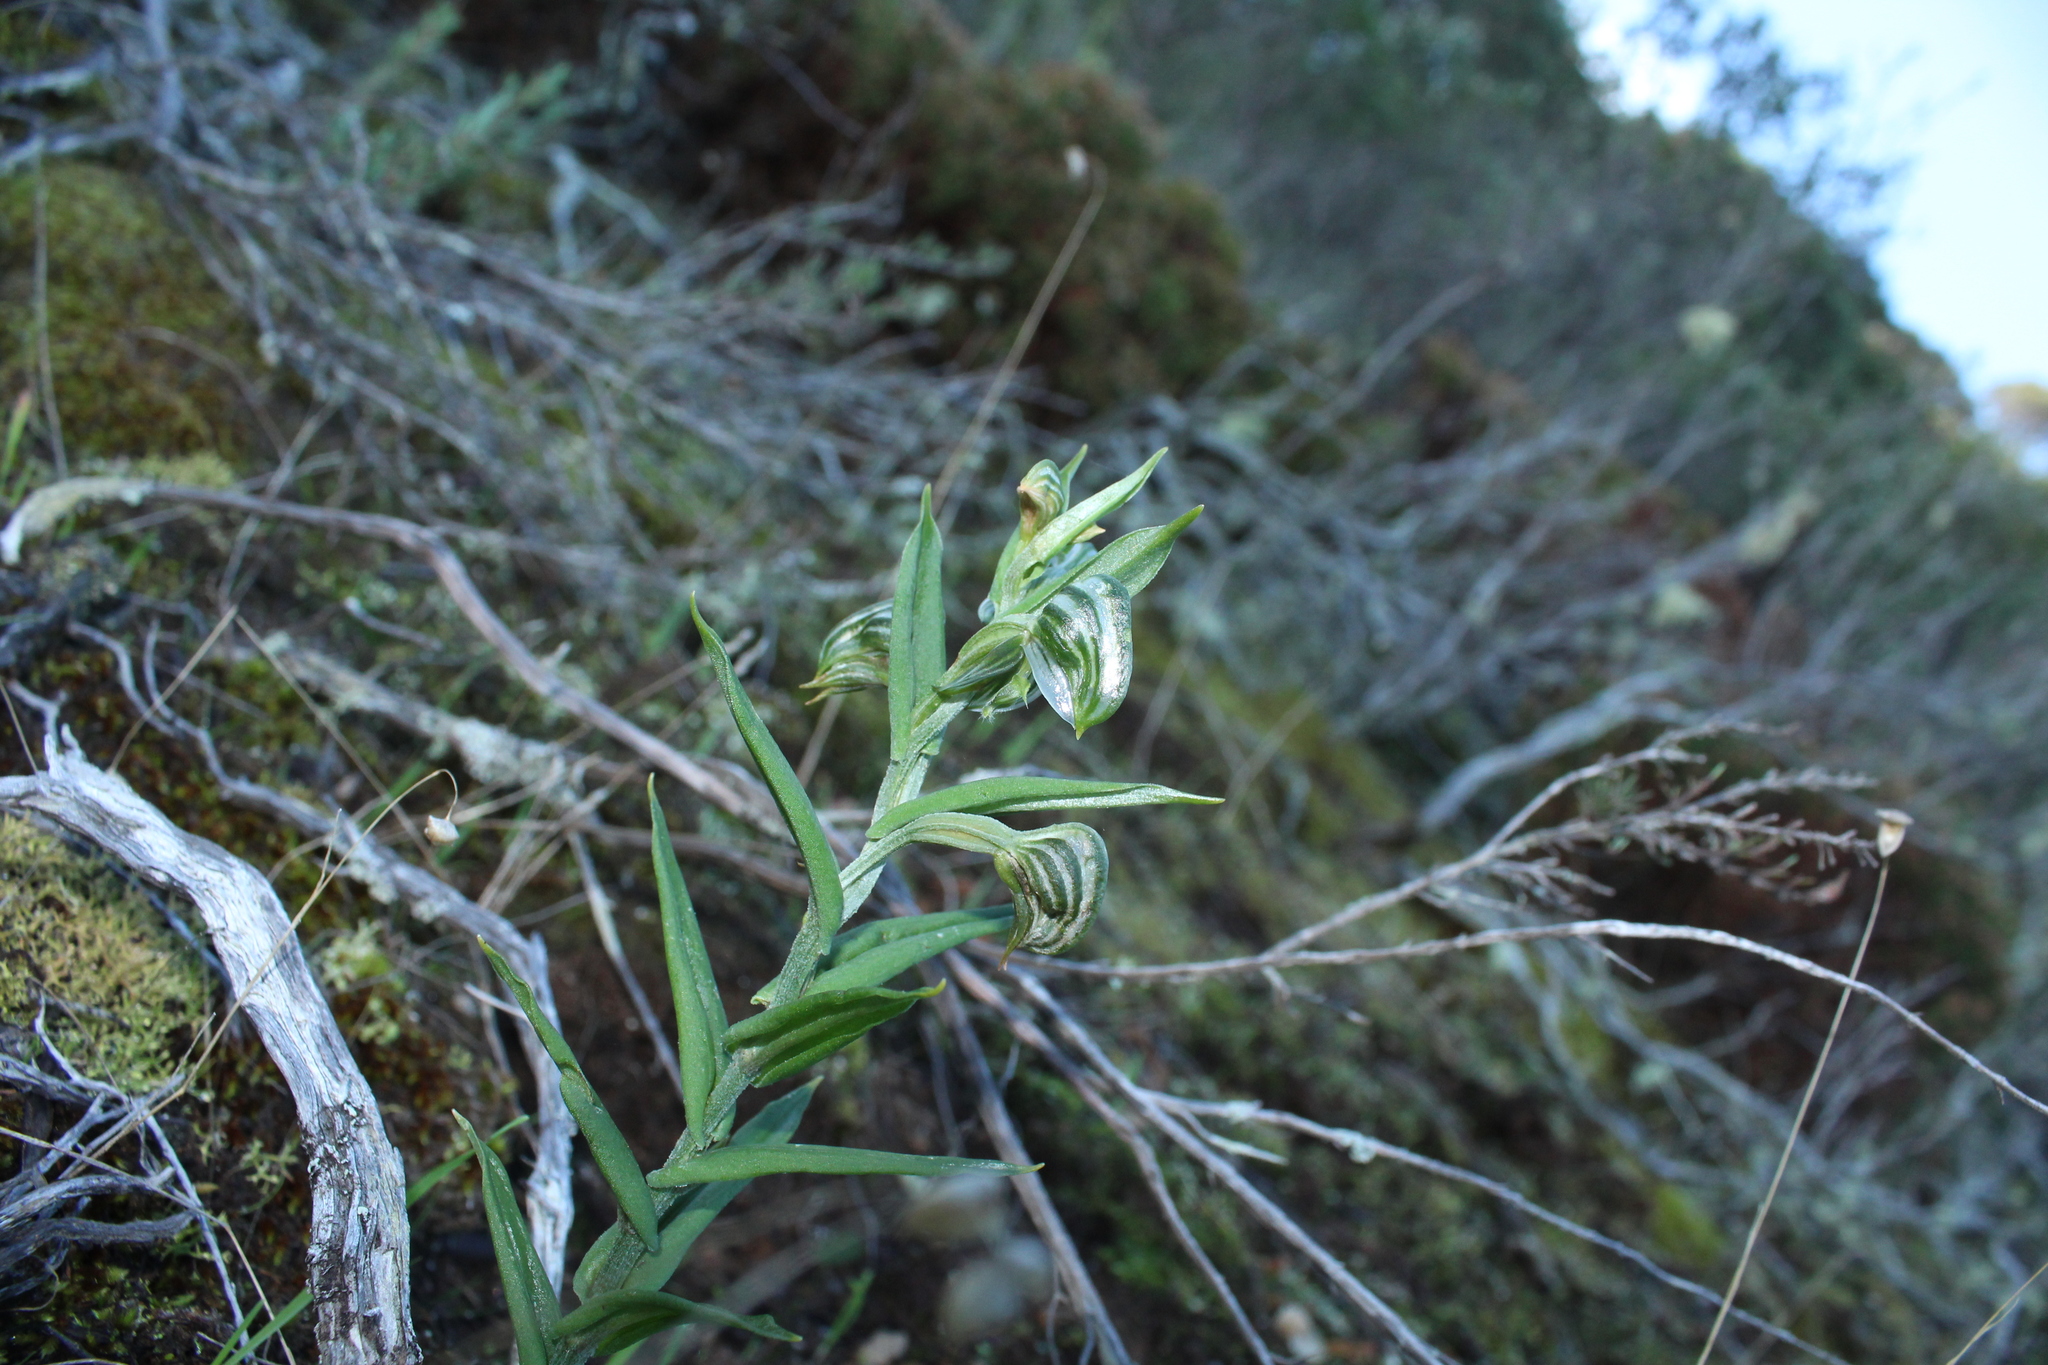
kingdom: Plantae
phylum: Tracheophyta
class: Liliopsida
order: Asparagales
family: Orchidaceae
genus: Pterostylis
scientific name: Pterostylis vittata
